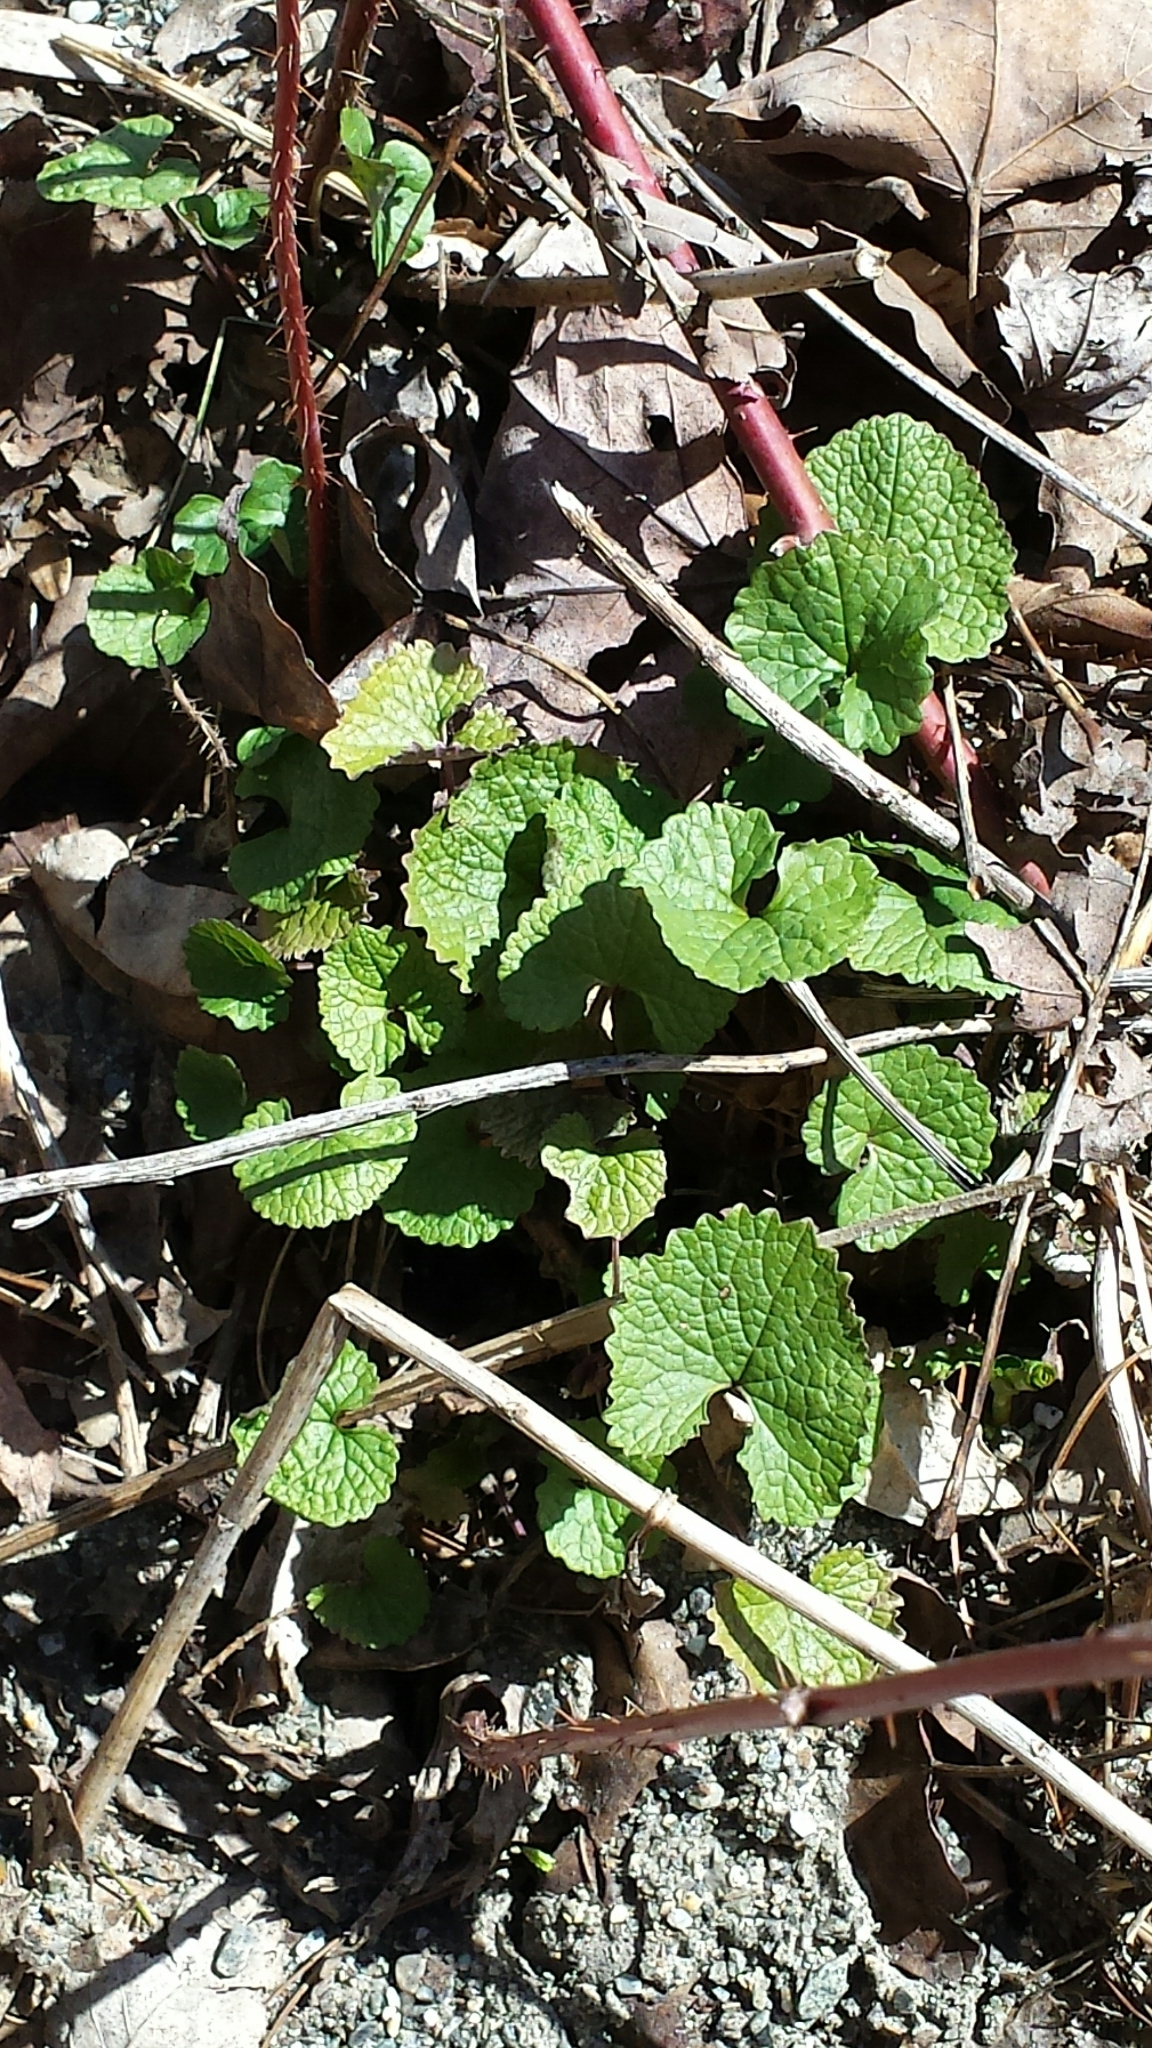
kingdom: Plantae
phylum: Tracheophyta
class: Magnoliopsida
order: Brassicales
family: Brassicaceae
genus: Alliaria
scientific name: Alliaria petiolata
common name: Garlic mustard
